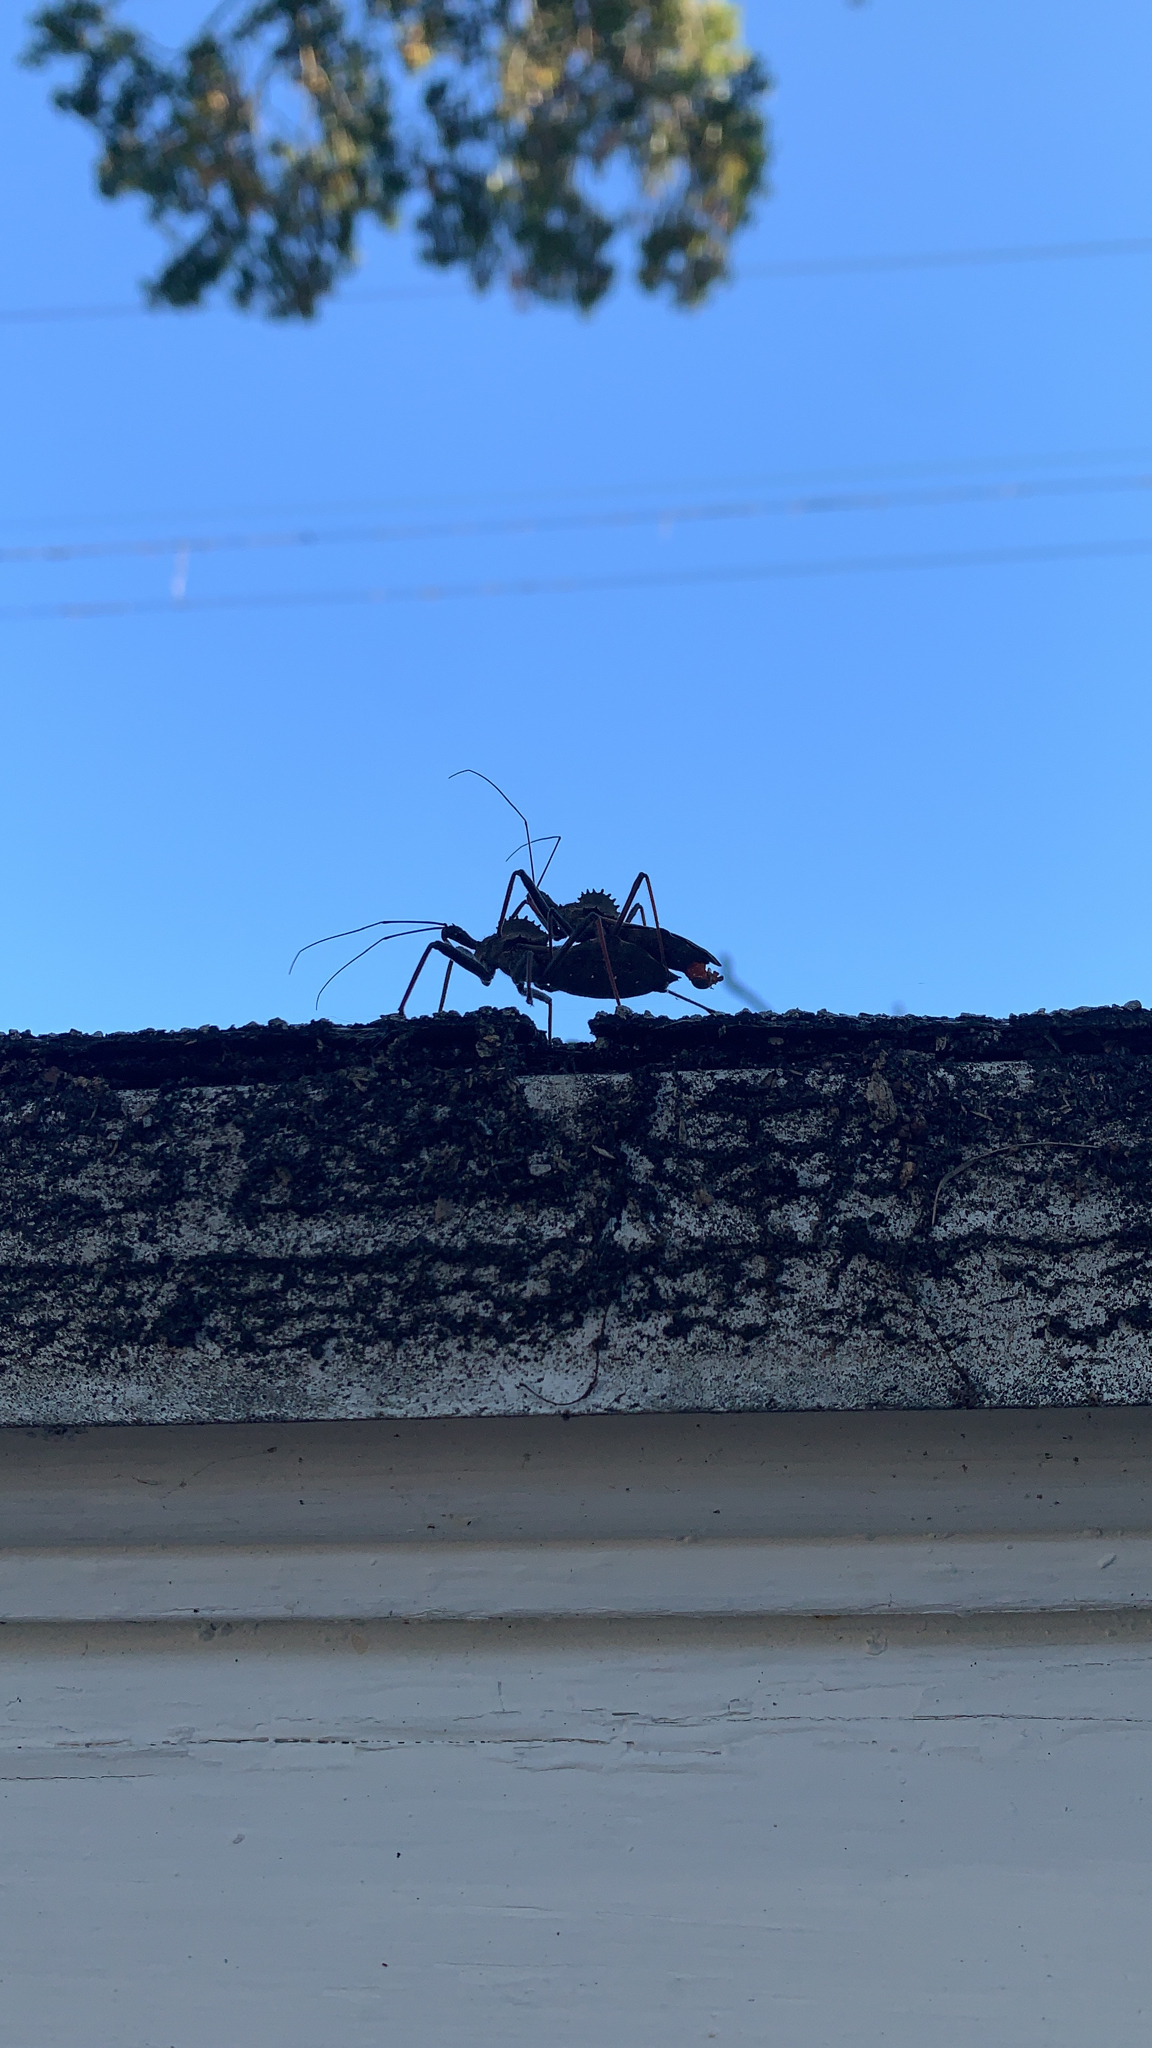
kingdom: Animalia
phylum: Arthropoda
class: Insecta
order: Hemiptera
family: Reduviidae
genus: Arilus
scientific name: Arilus cristatus
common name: North american wheel bug
